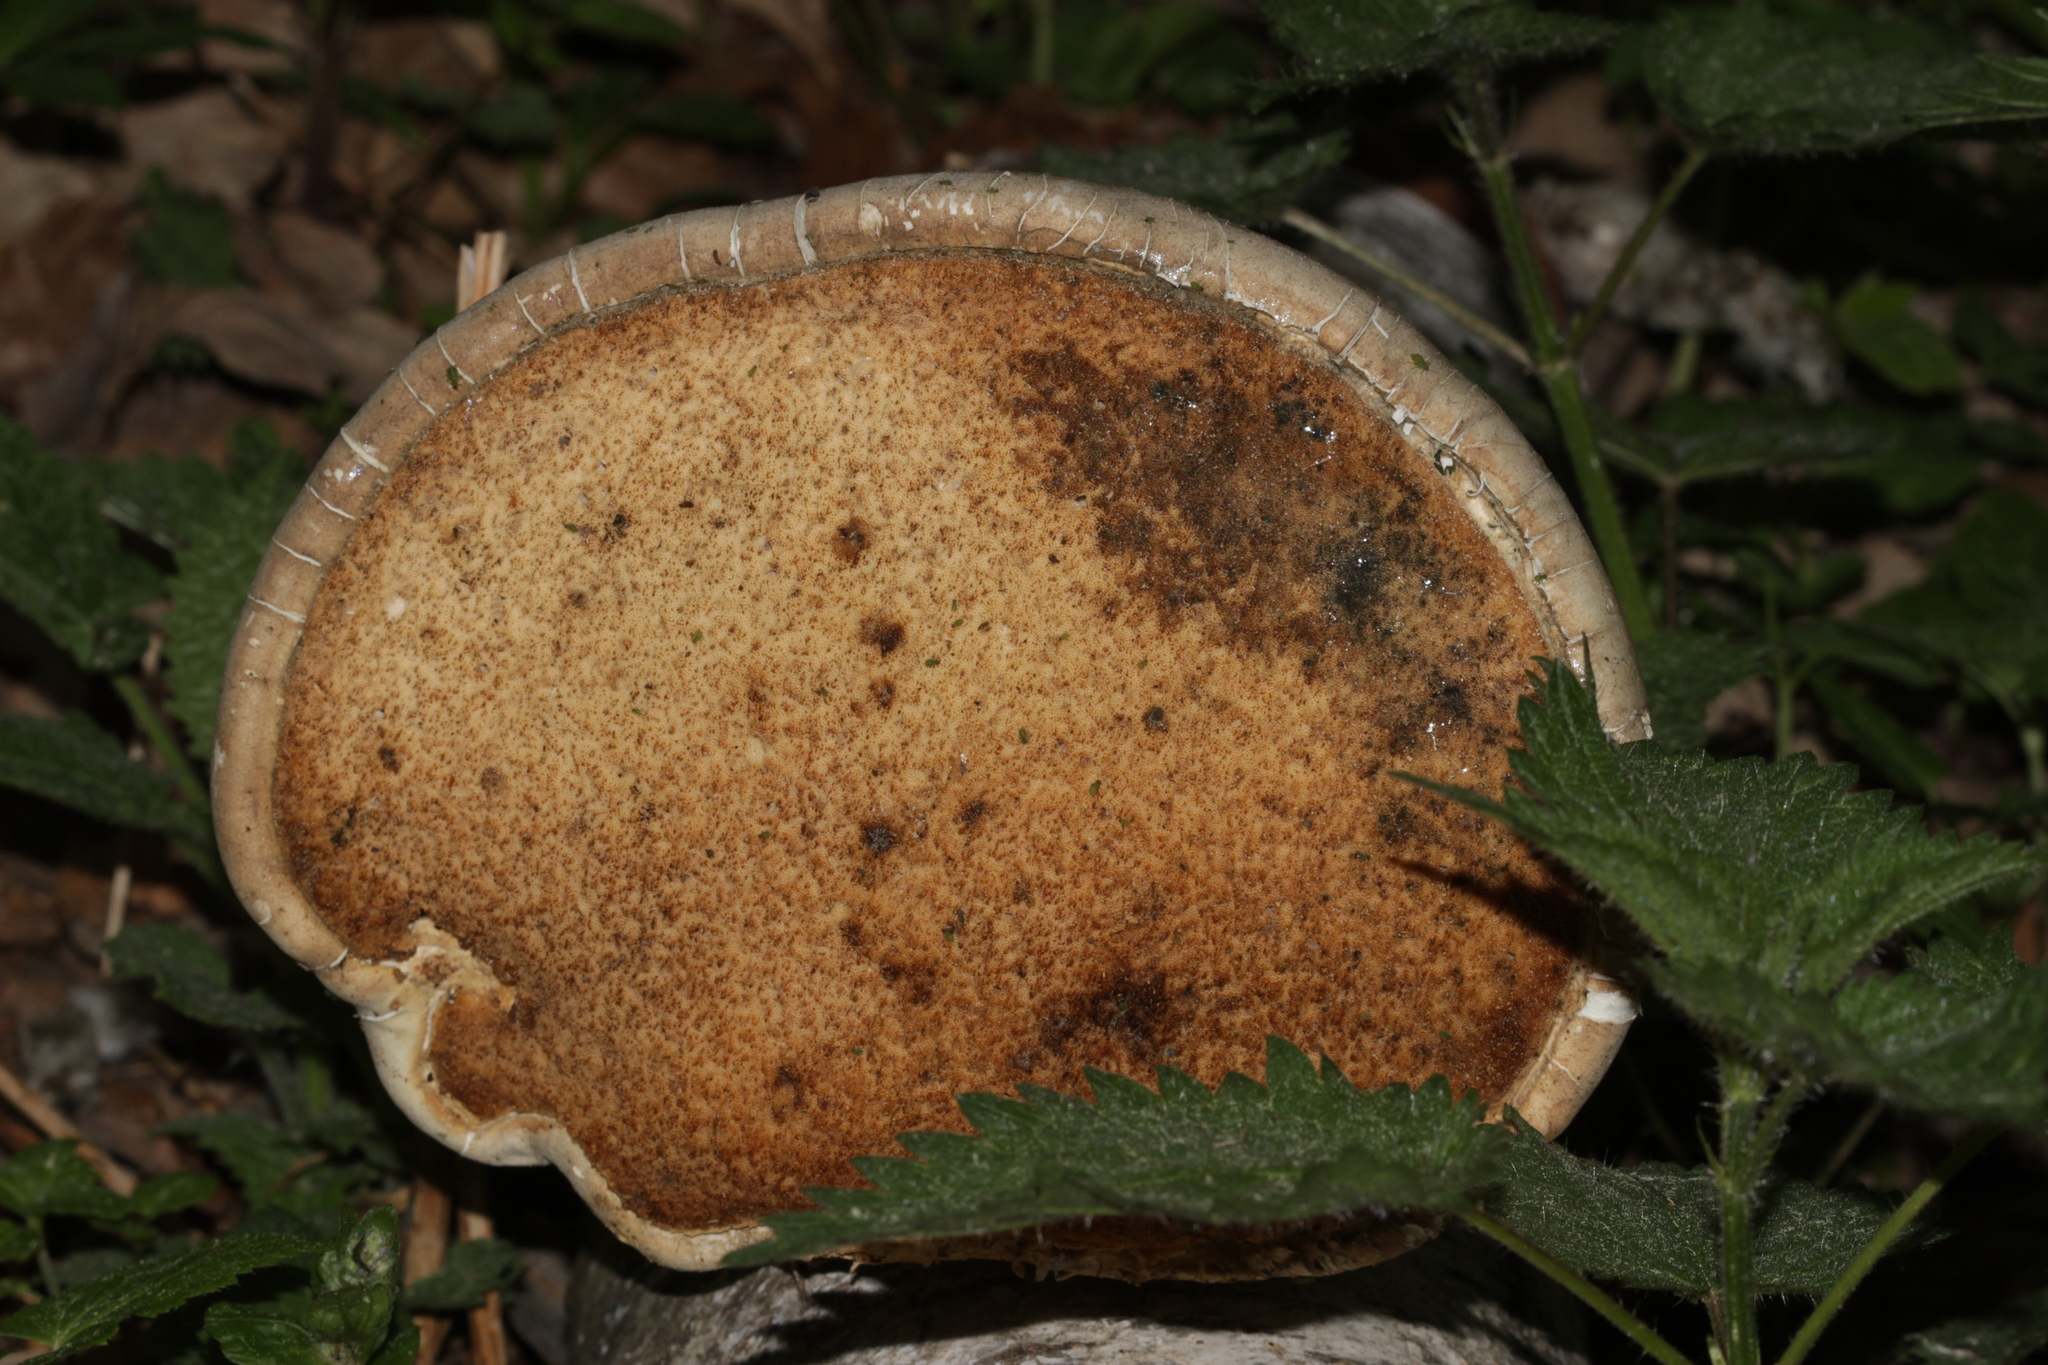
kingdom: Fungi
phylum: Basidiomycota
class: Agaricomycetes
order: Polyporales
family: Fomitopsidaceae
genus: Fomitopsis
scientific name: Fomitopsis betulina
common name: Birch polypore
